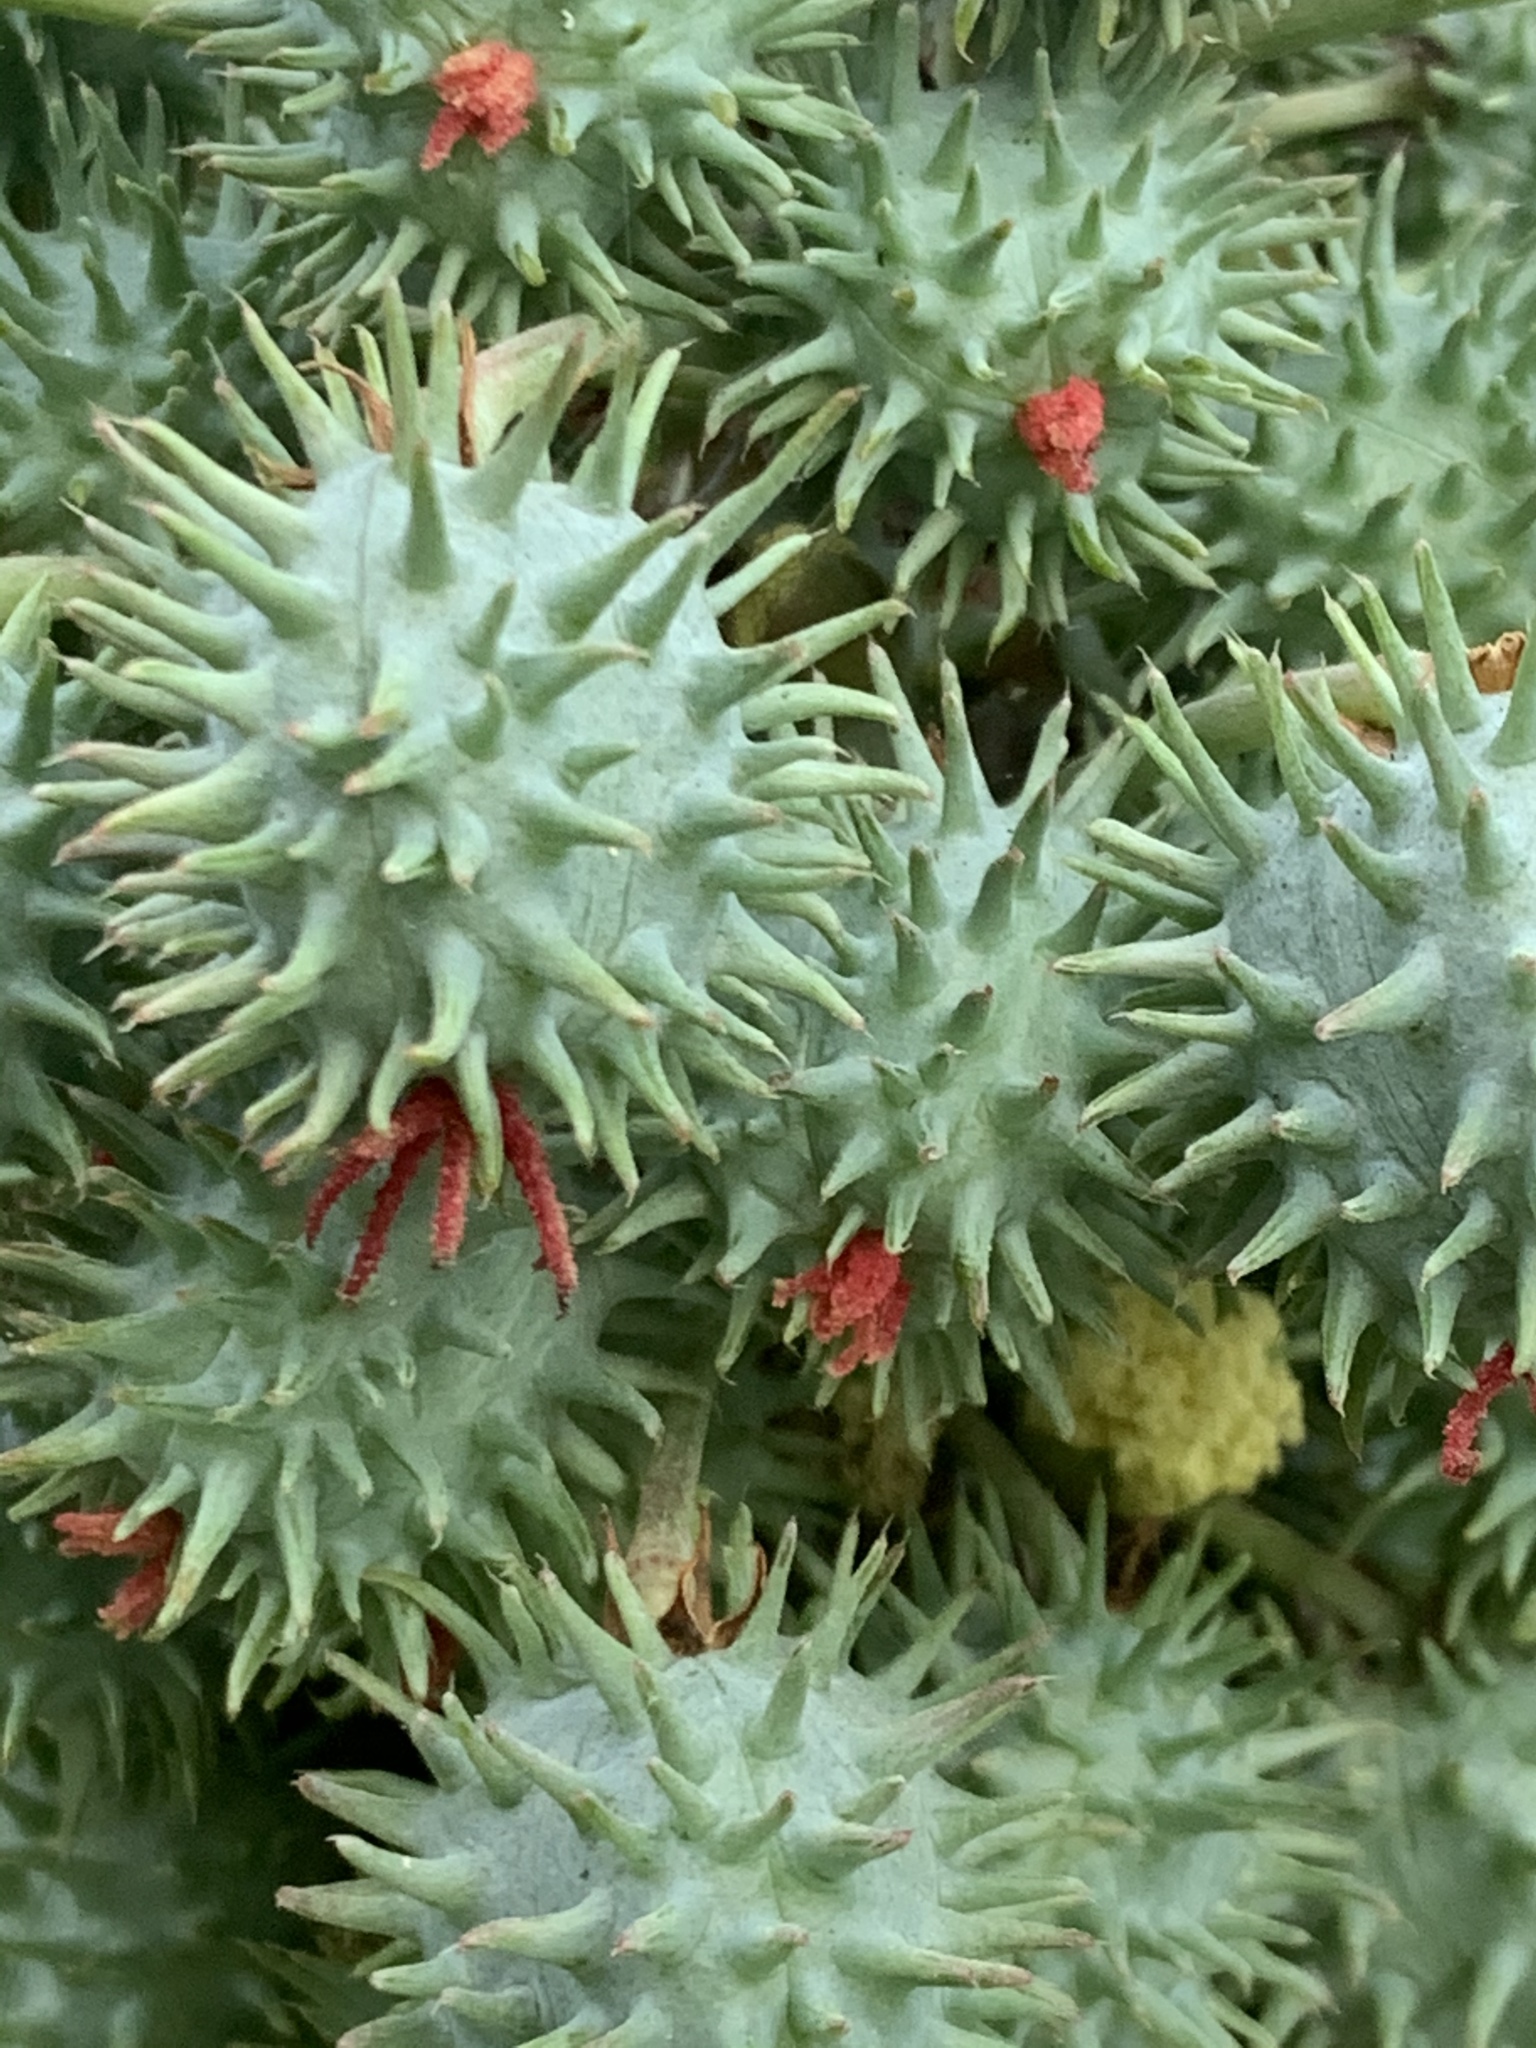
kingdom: Plantae
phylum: Tracheophyta
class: Magnoliopsida
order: Malpighiales
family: Euphorbiaceae
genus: Ricinus
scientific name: Ricinus communis
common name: Castor-oil-plant
